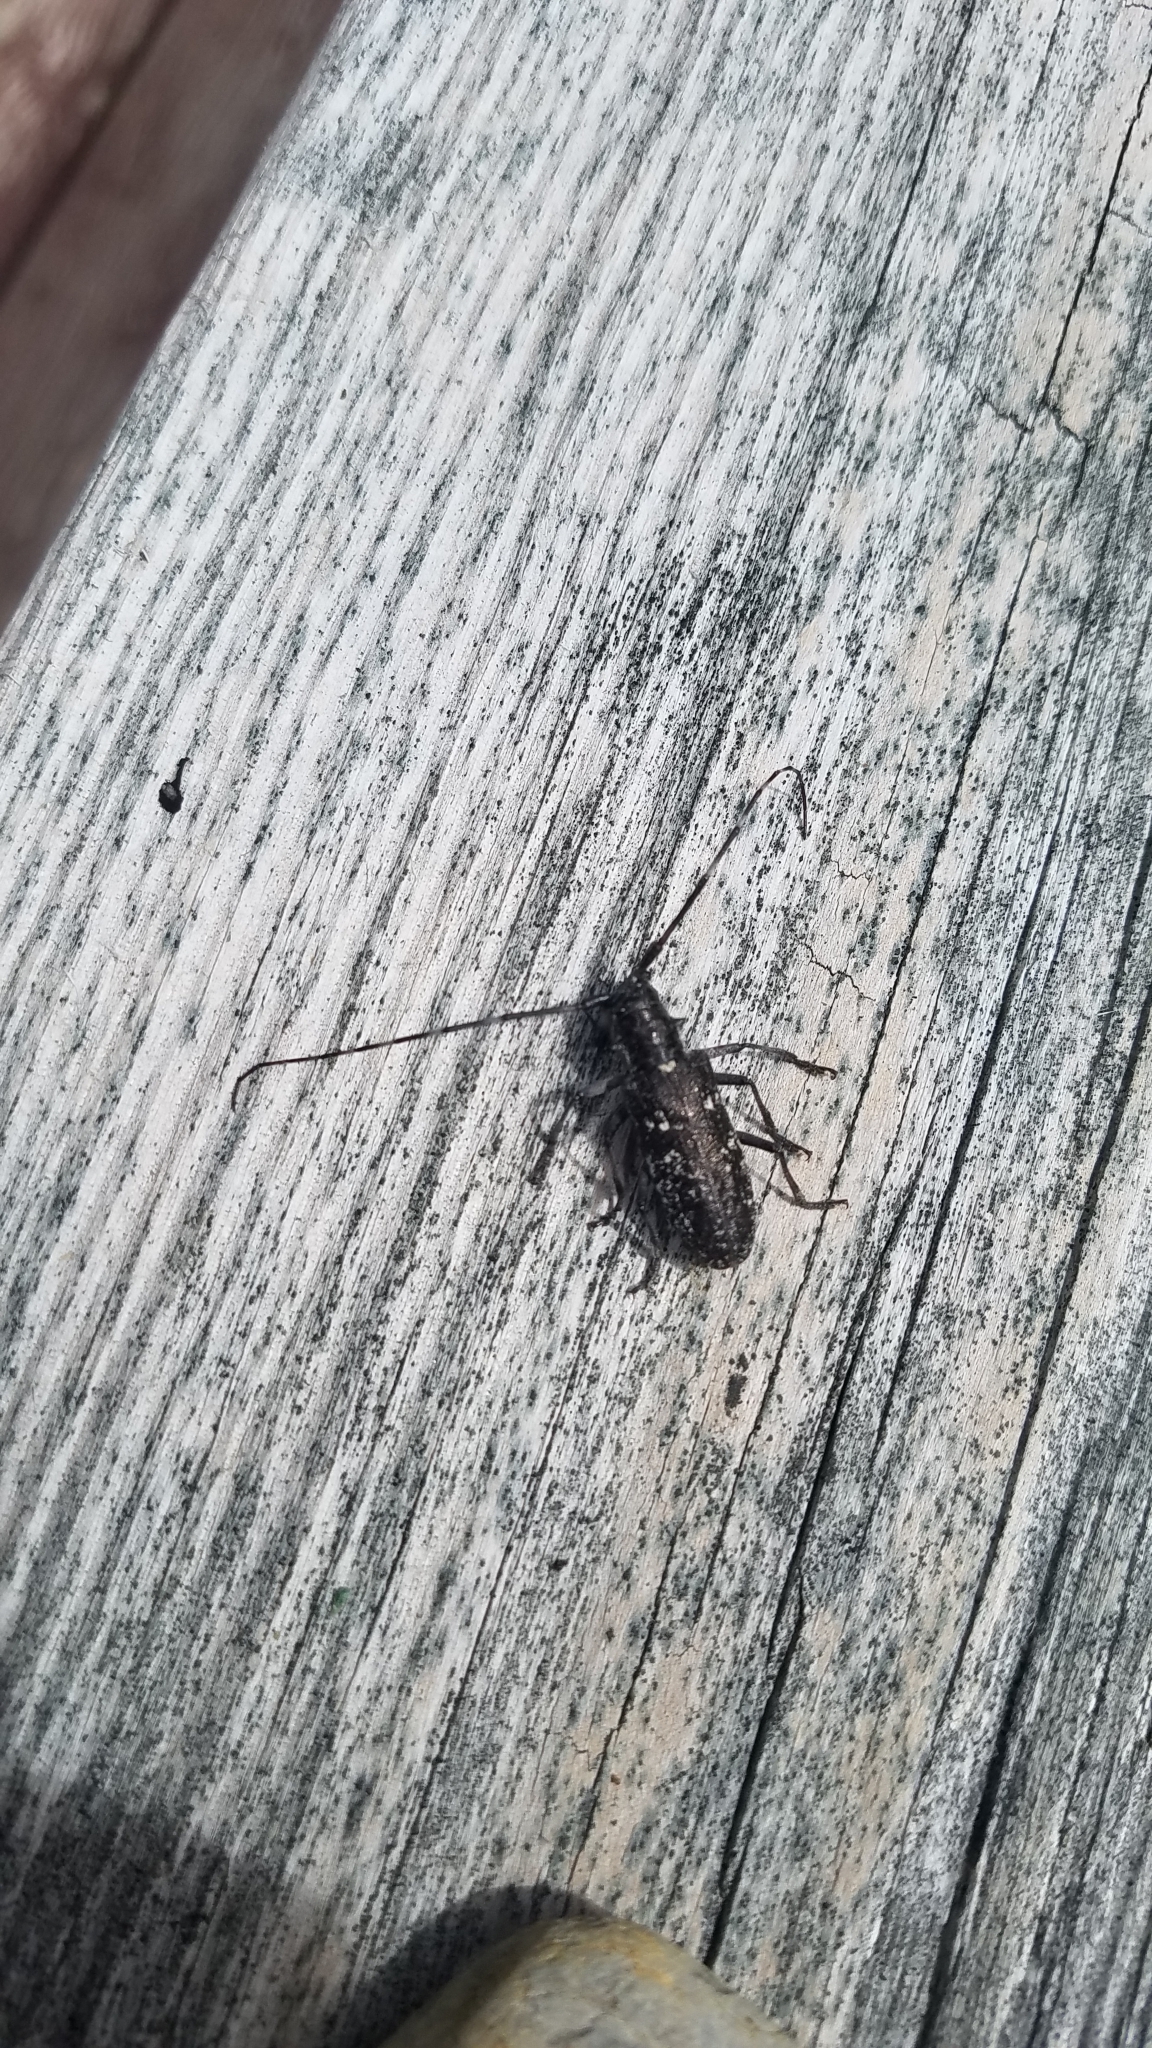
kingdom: Animalia
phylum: Arthropoda
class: Insecta
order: Coleoptera
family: Cerambycidae
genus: Monochamus
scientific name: Monochamus scutellatus
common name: White-spotted sawyer beetle
